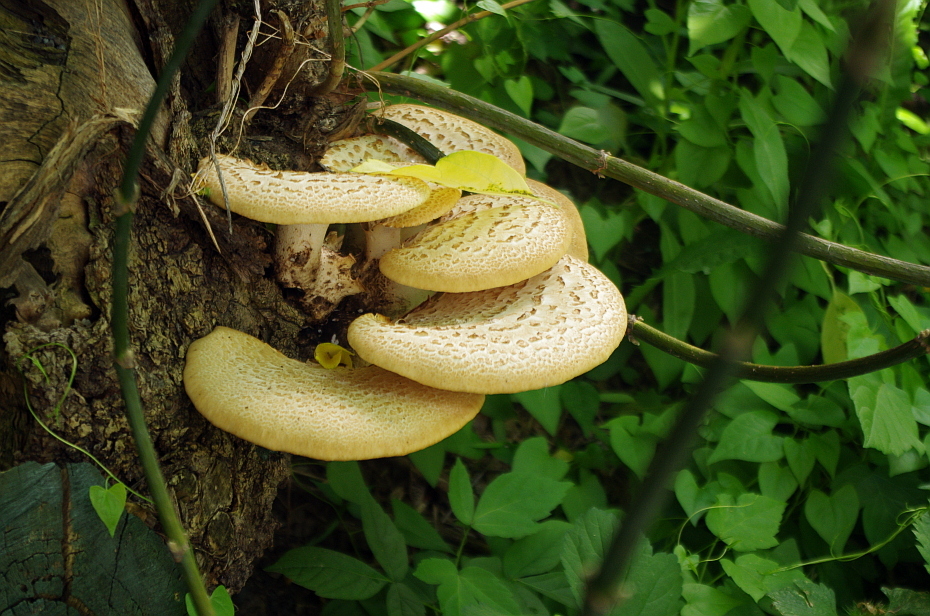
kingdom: Fungi
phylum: Basidiomycota
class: Agaricomycetes
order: Polyporales
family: Polyporaceae
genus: Cerioporus
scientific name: Cerioporus squamosus
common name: Dryad's saddle
